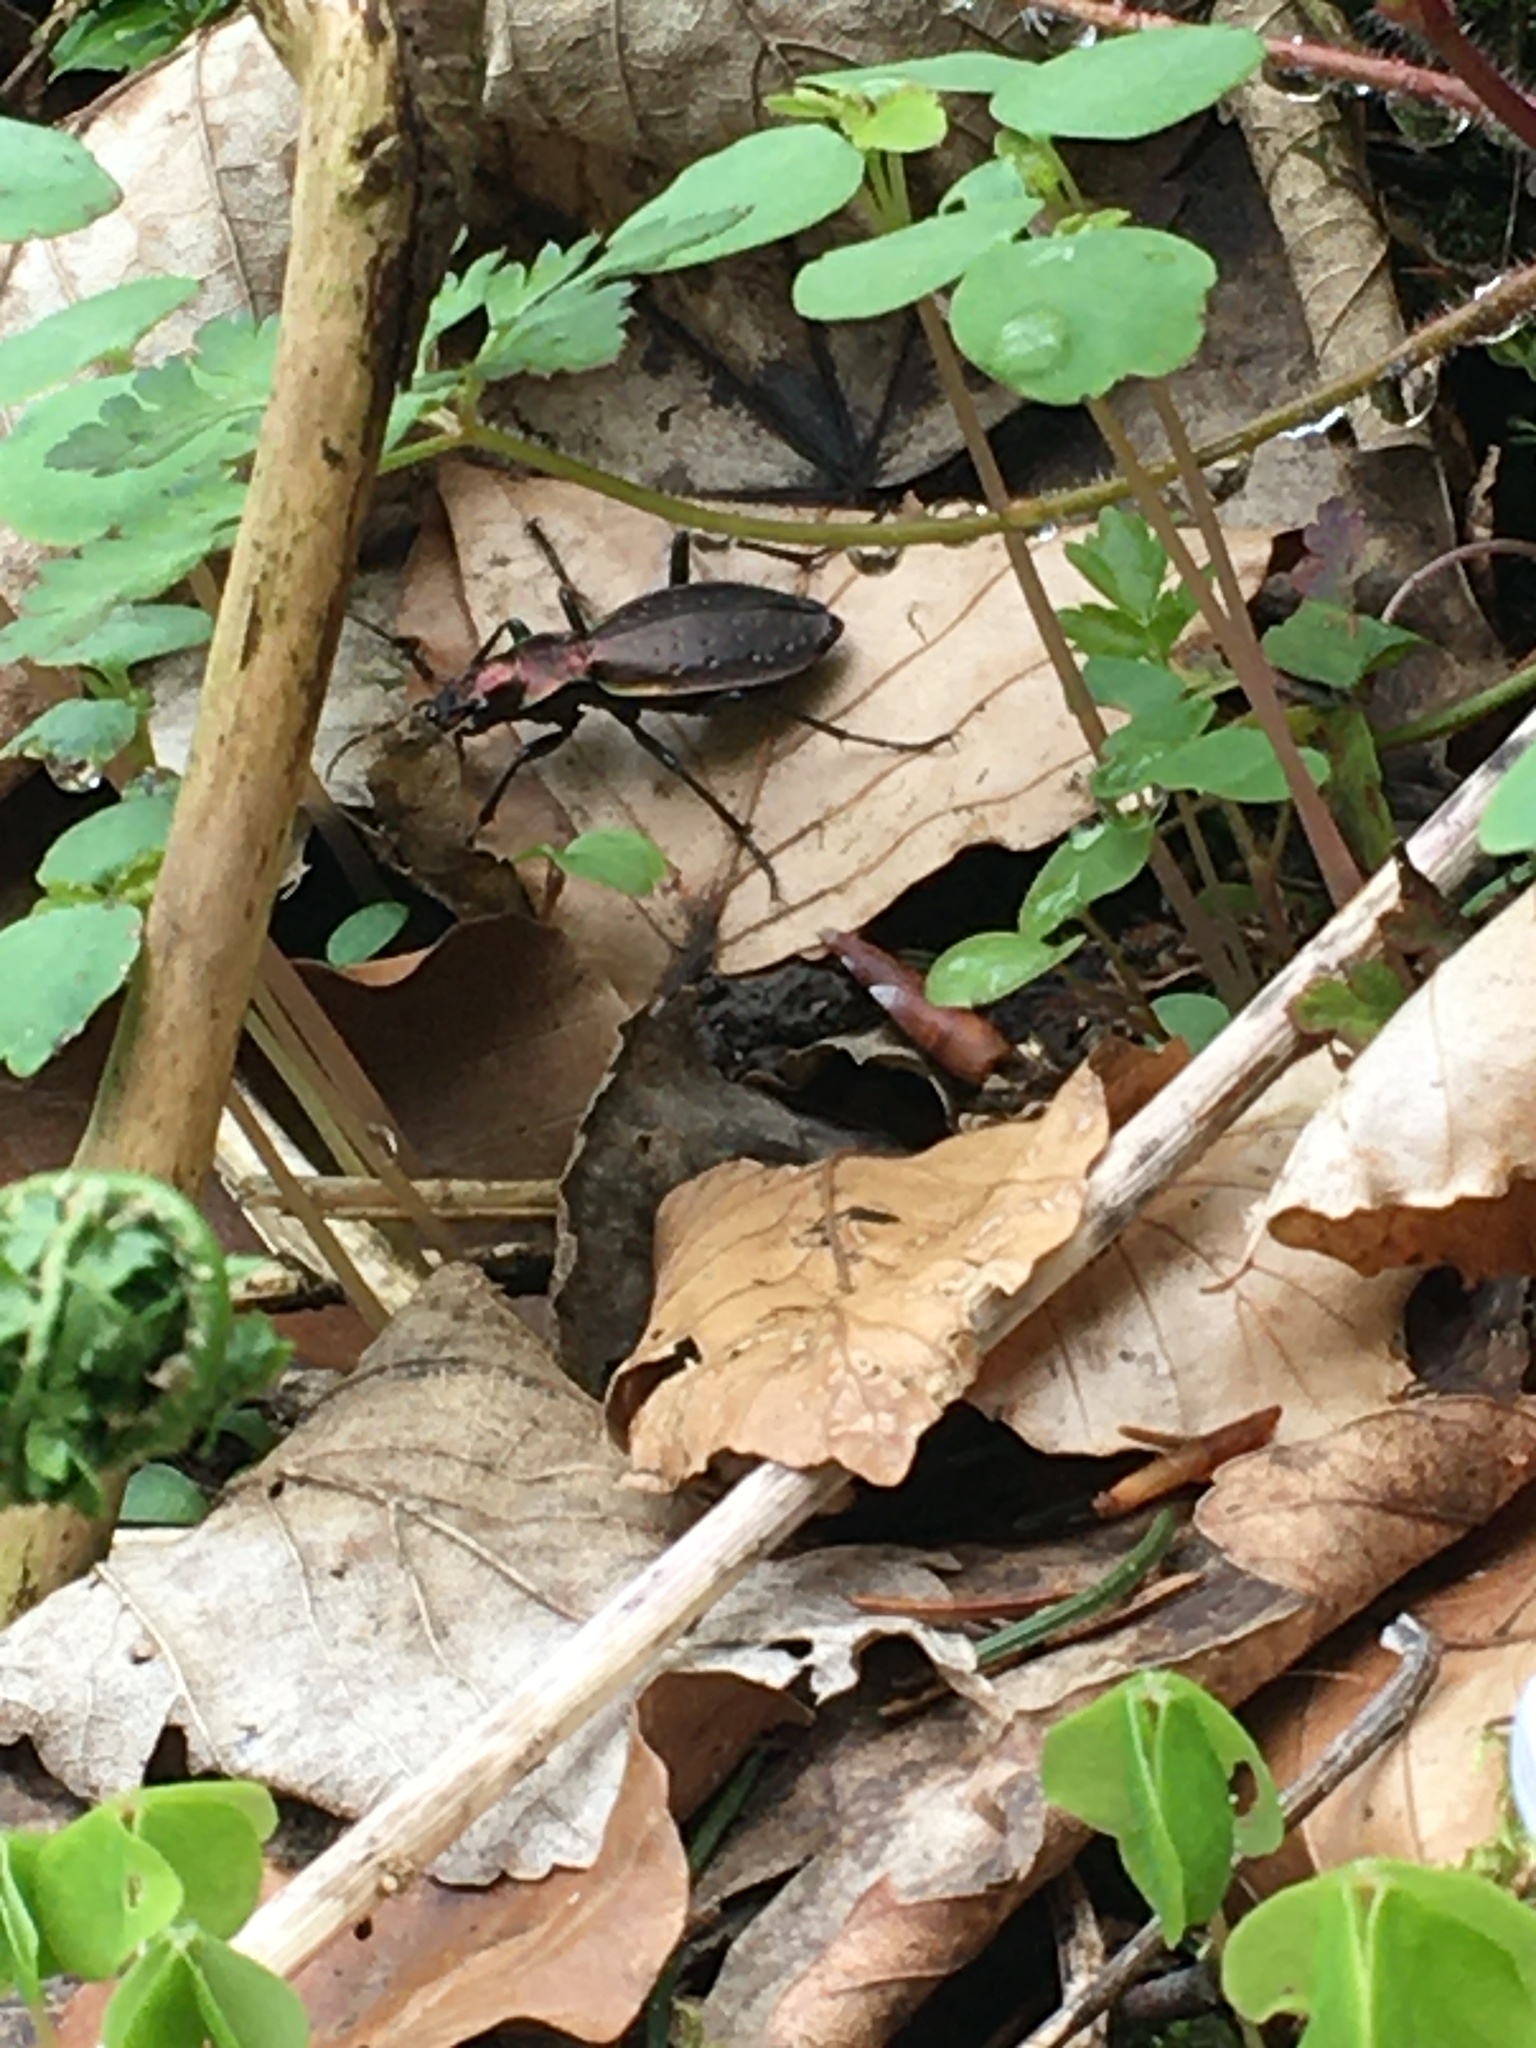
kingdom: Animalia
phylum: Arthropoda
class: Insecta
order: Coleoptera
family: Carabidae
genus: Carabus
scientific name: Carabus irregularis
